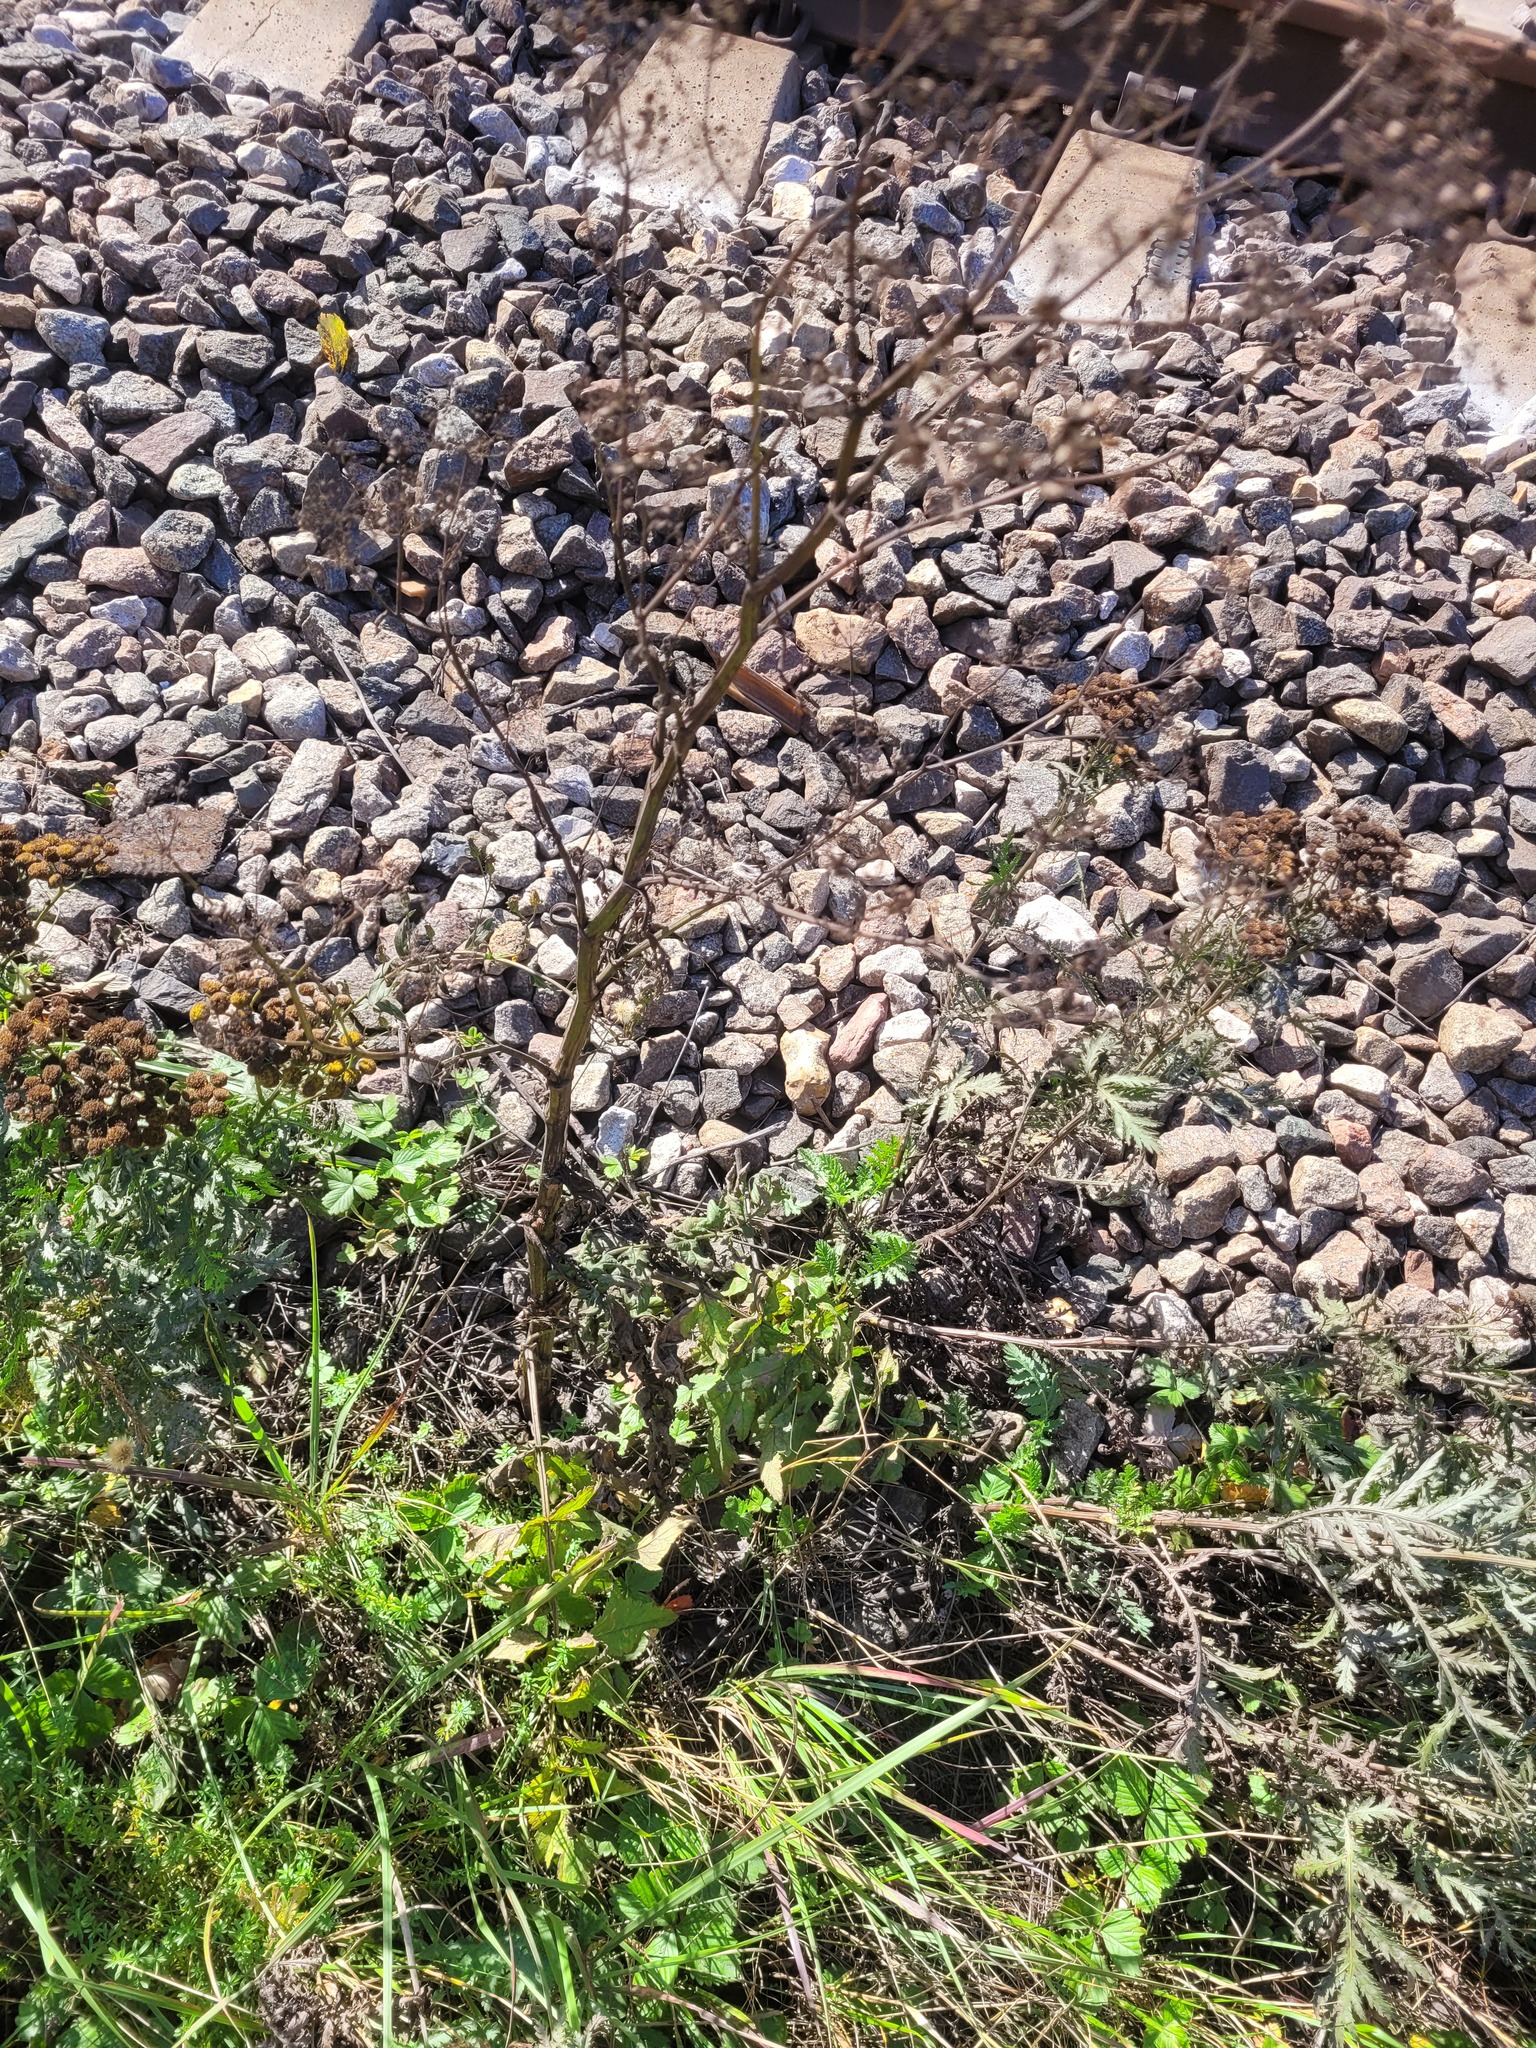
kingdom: Plantae
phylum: Tracheophyta
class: Magnoliopsida
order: Apiales
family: Apiaceae
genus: Pastinaca
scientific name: Pastinaca sativa
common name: Wild parsnip
